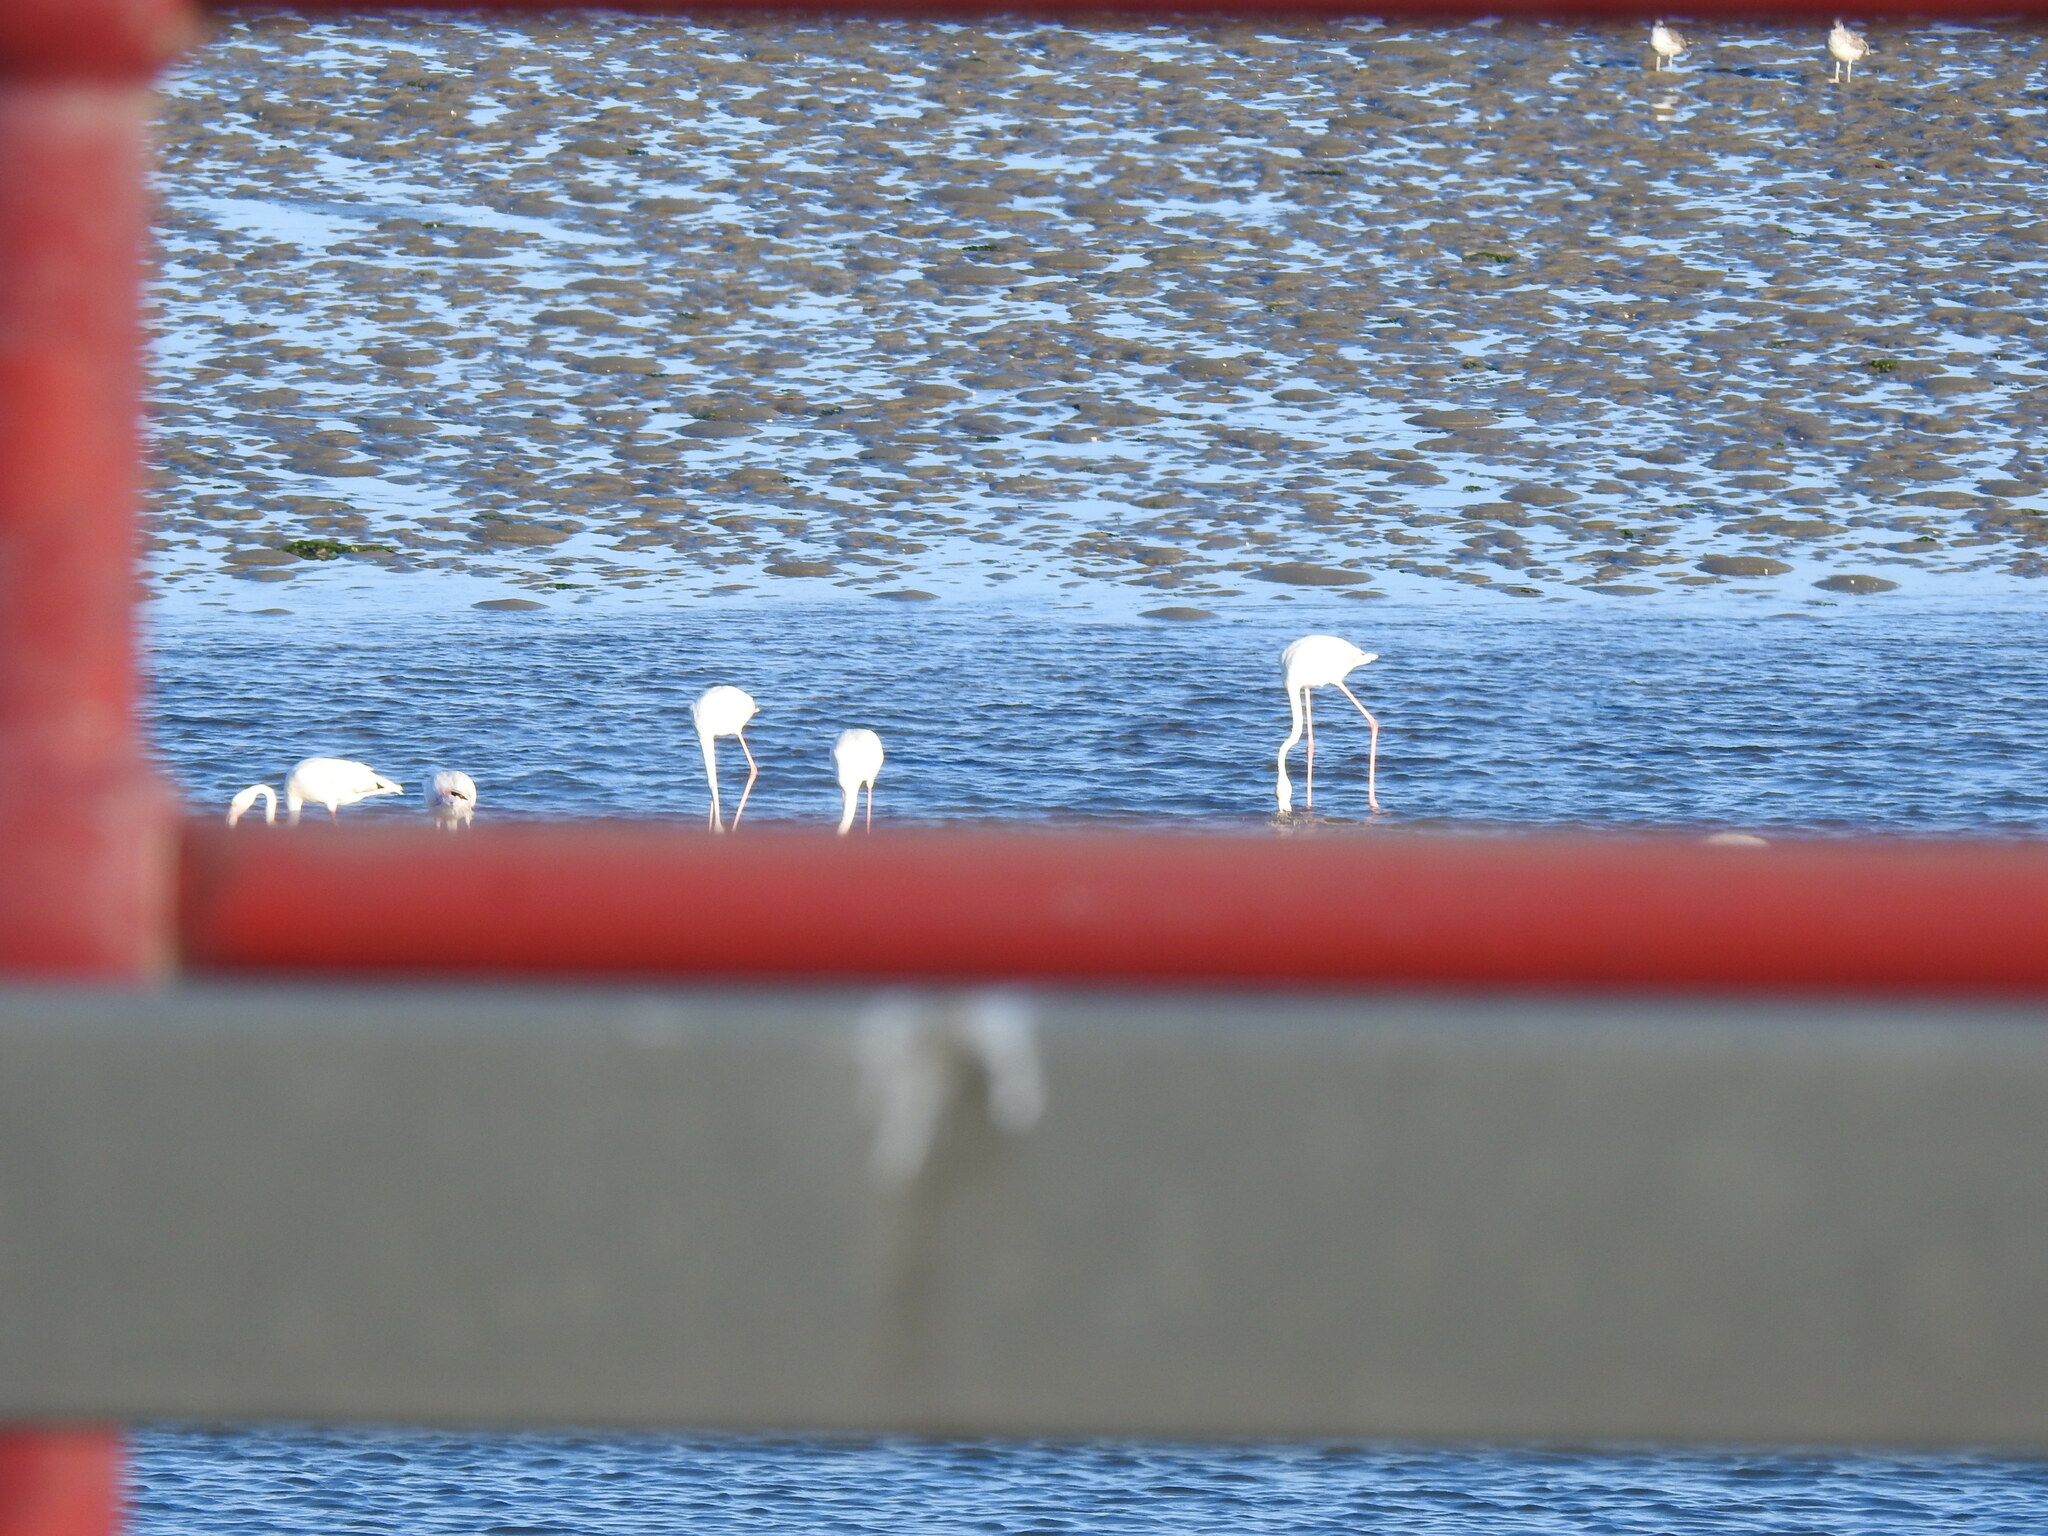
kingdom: Animalia
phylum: Chordata
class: Aves
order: Phoenicopteriformes
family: Phoenicopteridae
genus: Phoenicopterus
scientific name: Phoenicopterus roseus
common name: Greater flamingo
